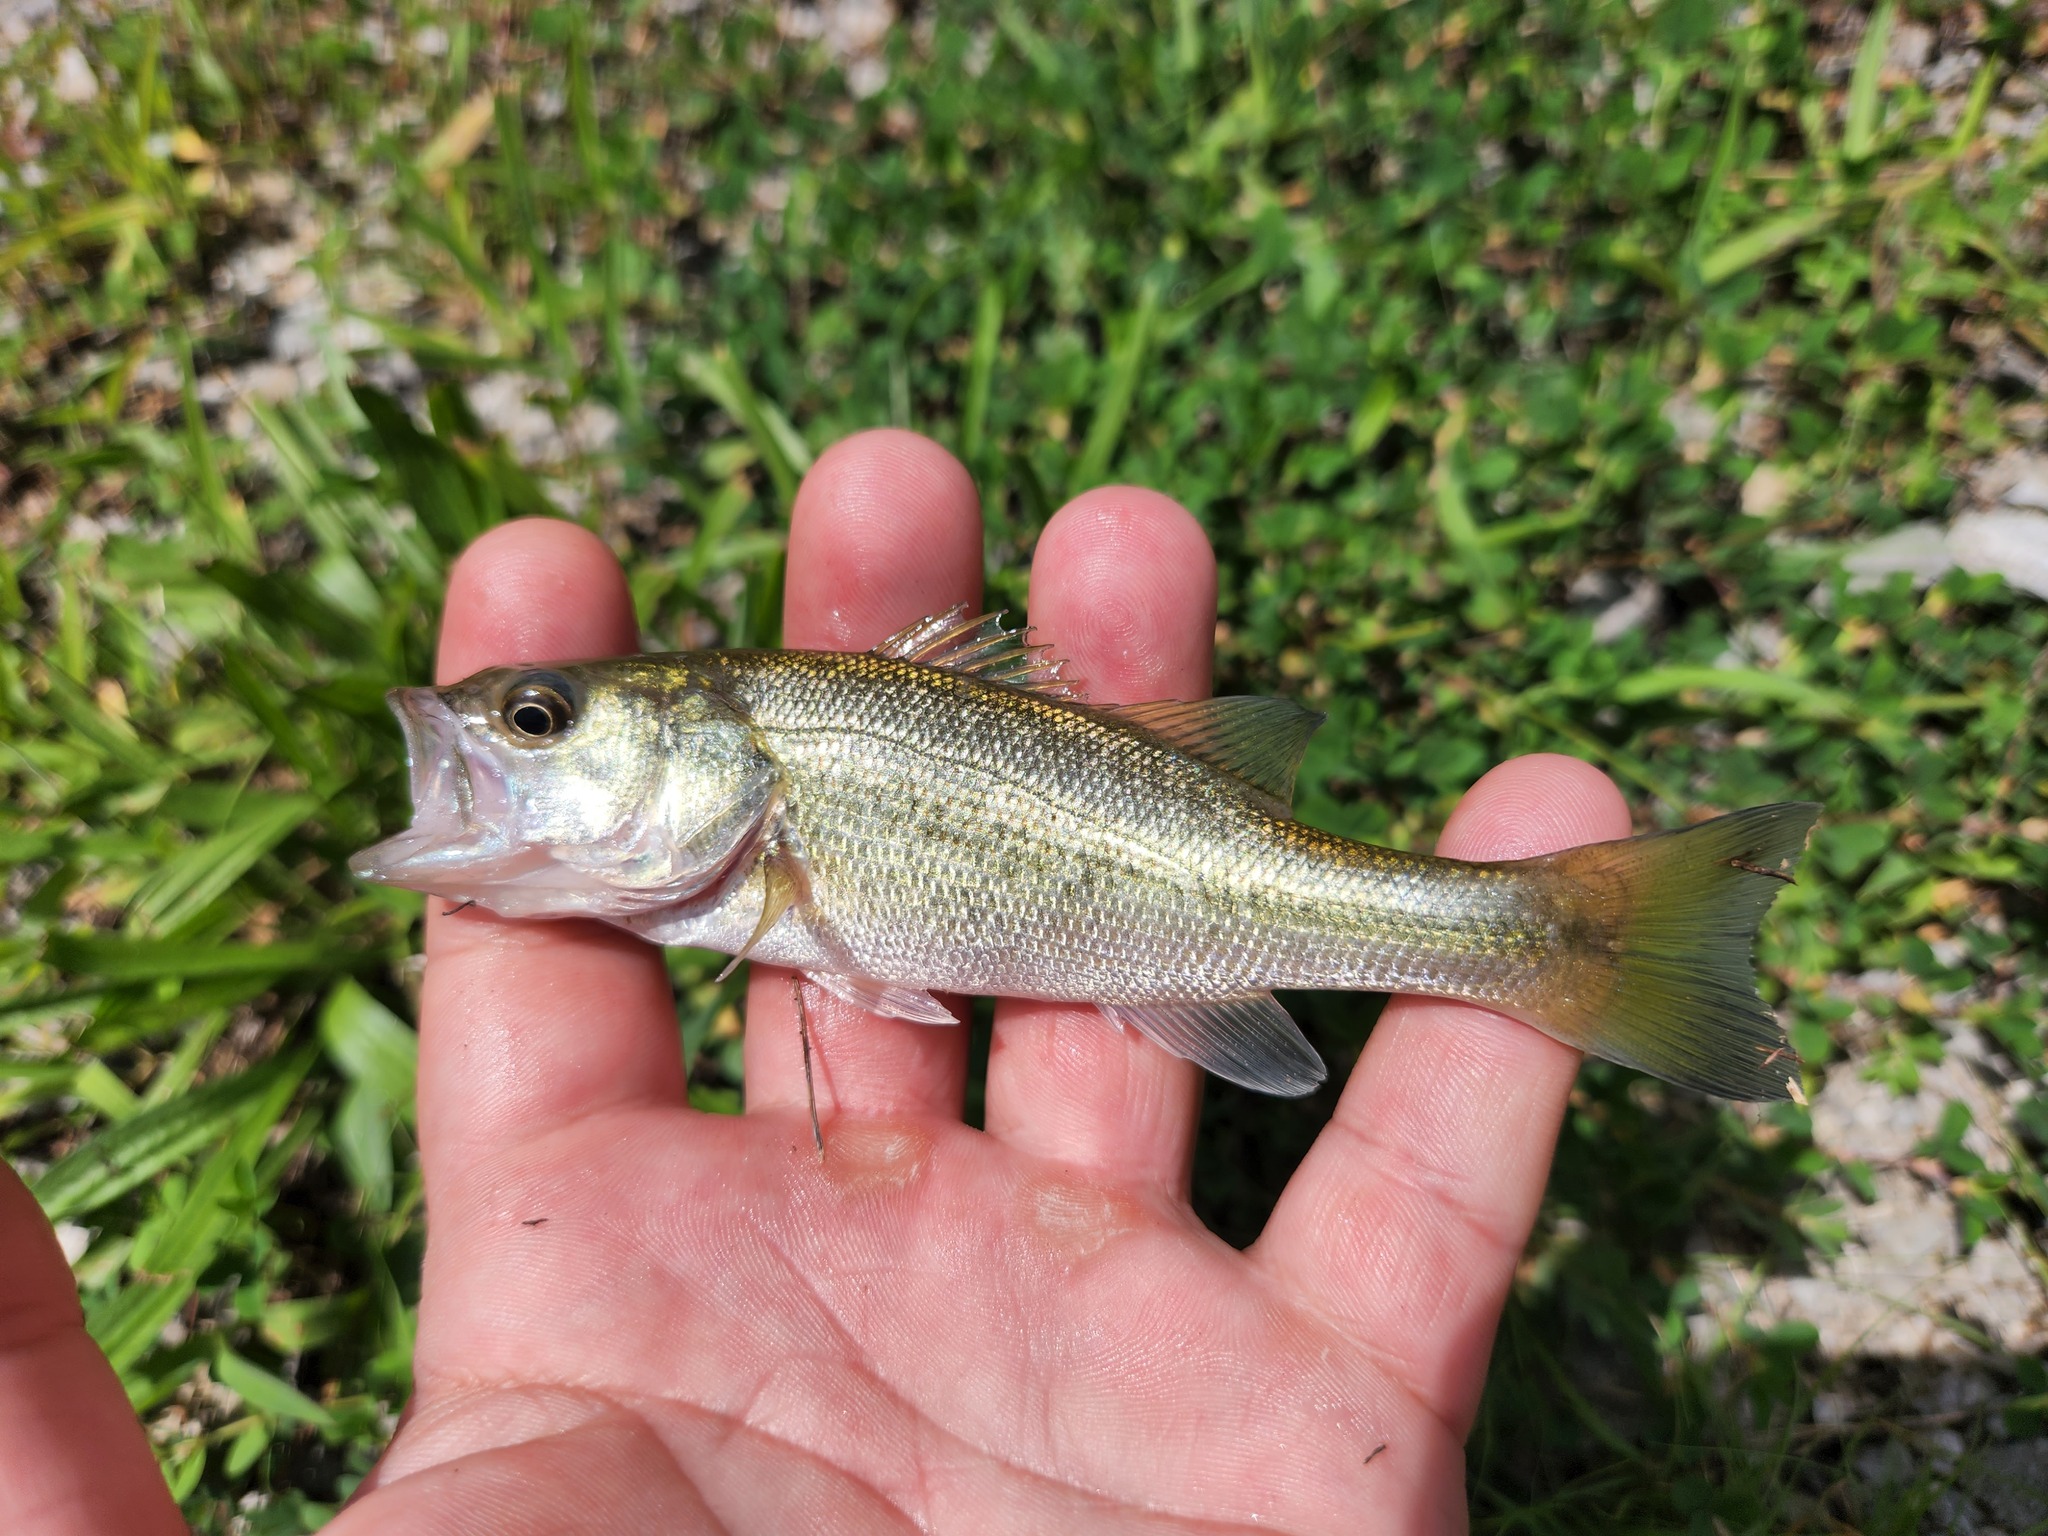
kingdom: Animalia
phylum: Chordata
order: Perciformes
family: Centrarchidae
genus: Micropterus
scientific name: Micropterus
